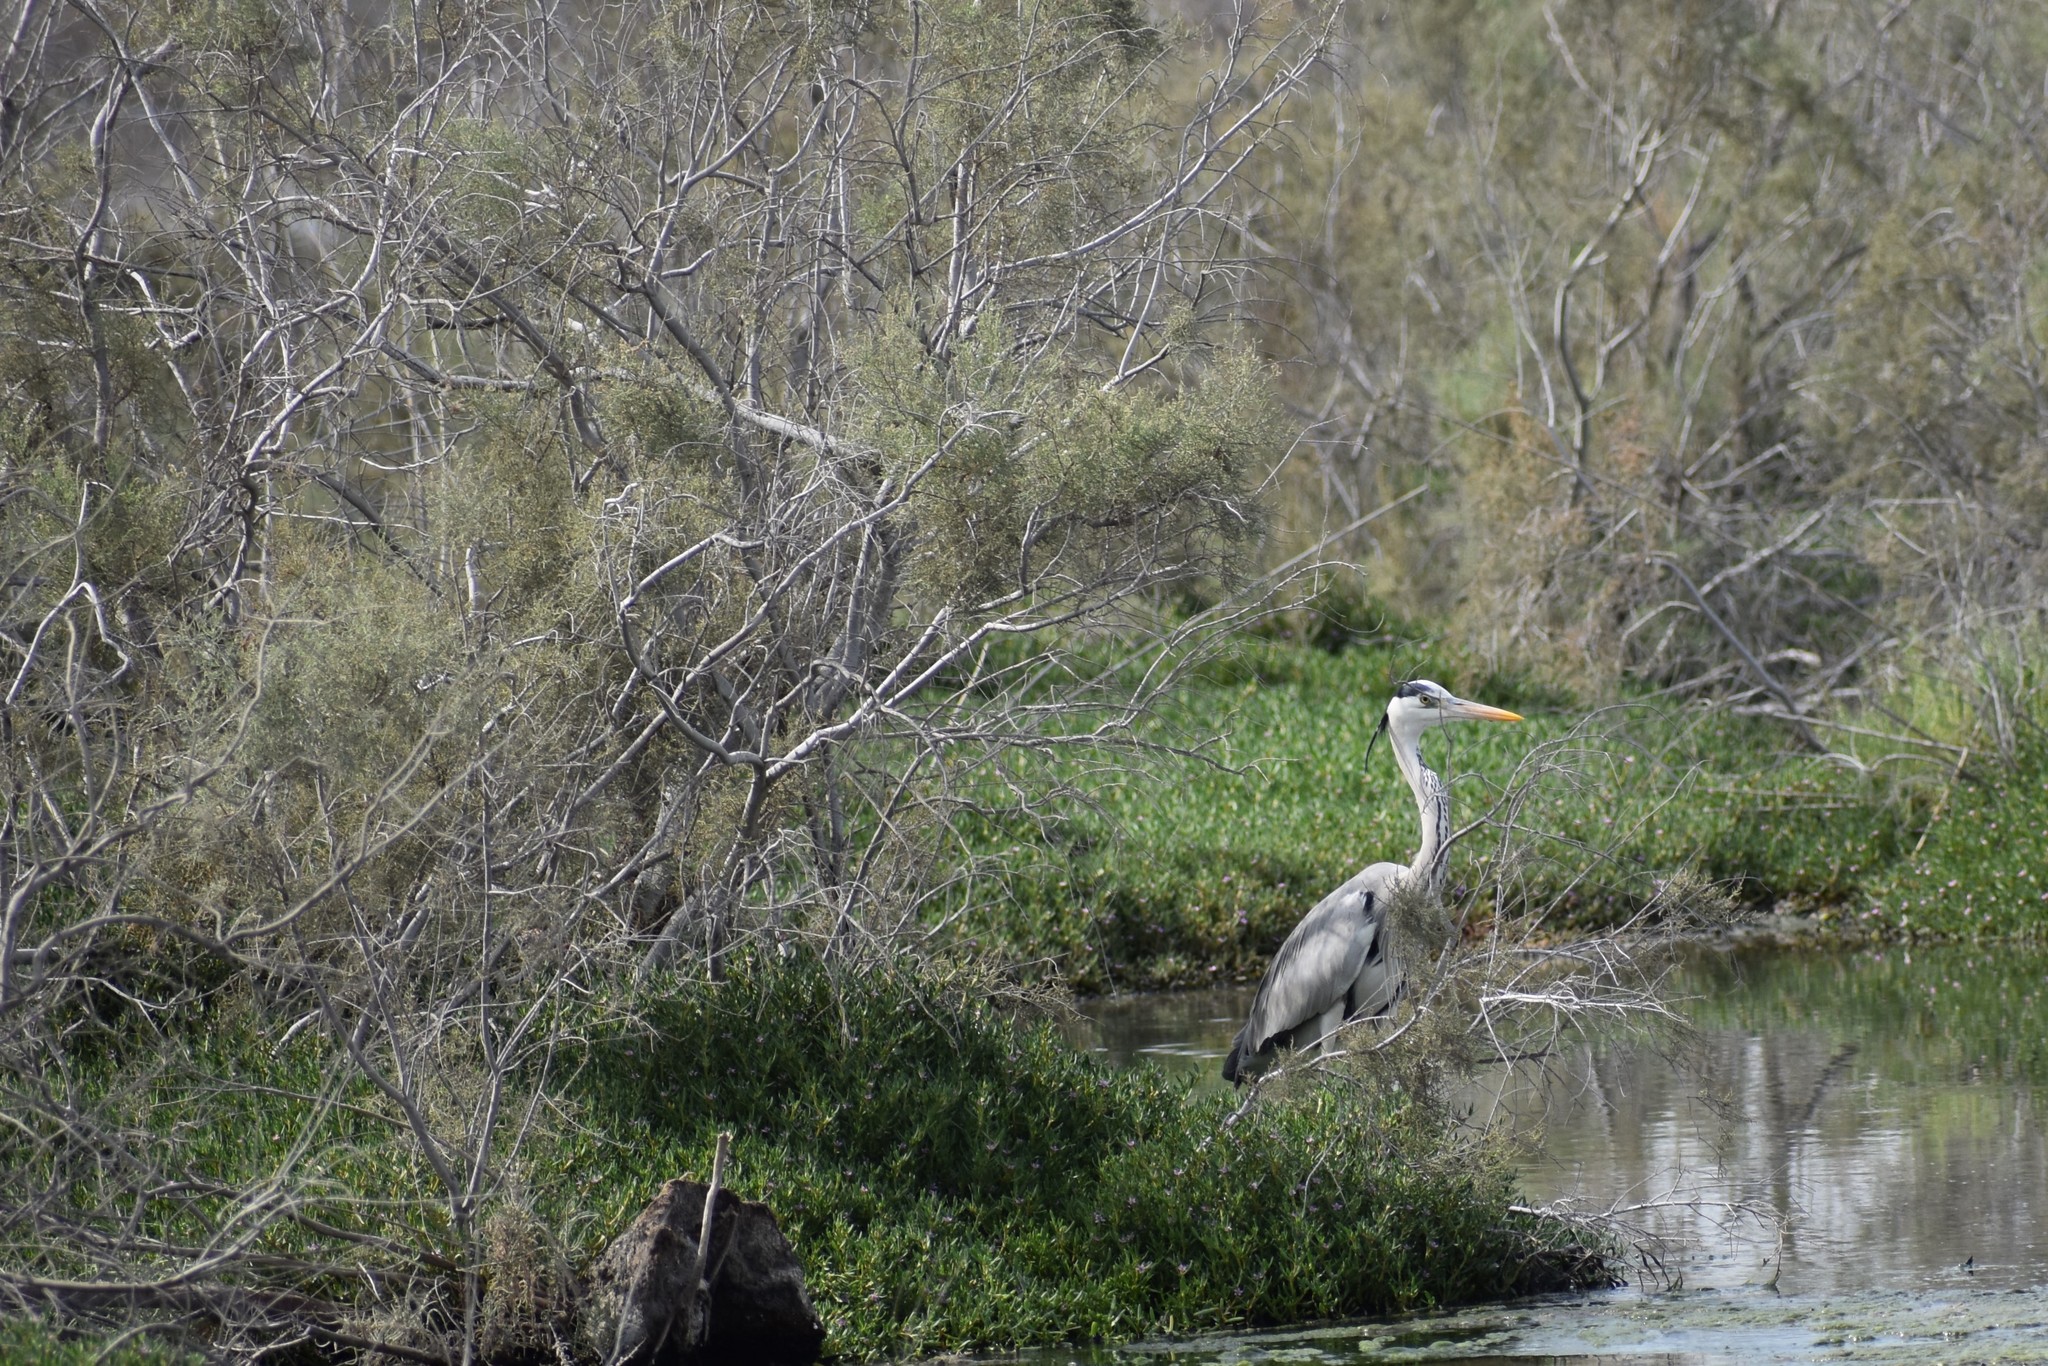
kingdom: Animalia
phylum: Chordata
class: Aves
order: Pelecaniformes
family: Ardeidae
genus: Ardea
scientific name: Ardea cinerea
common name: Grey heron
